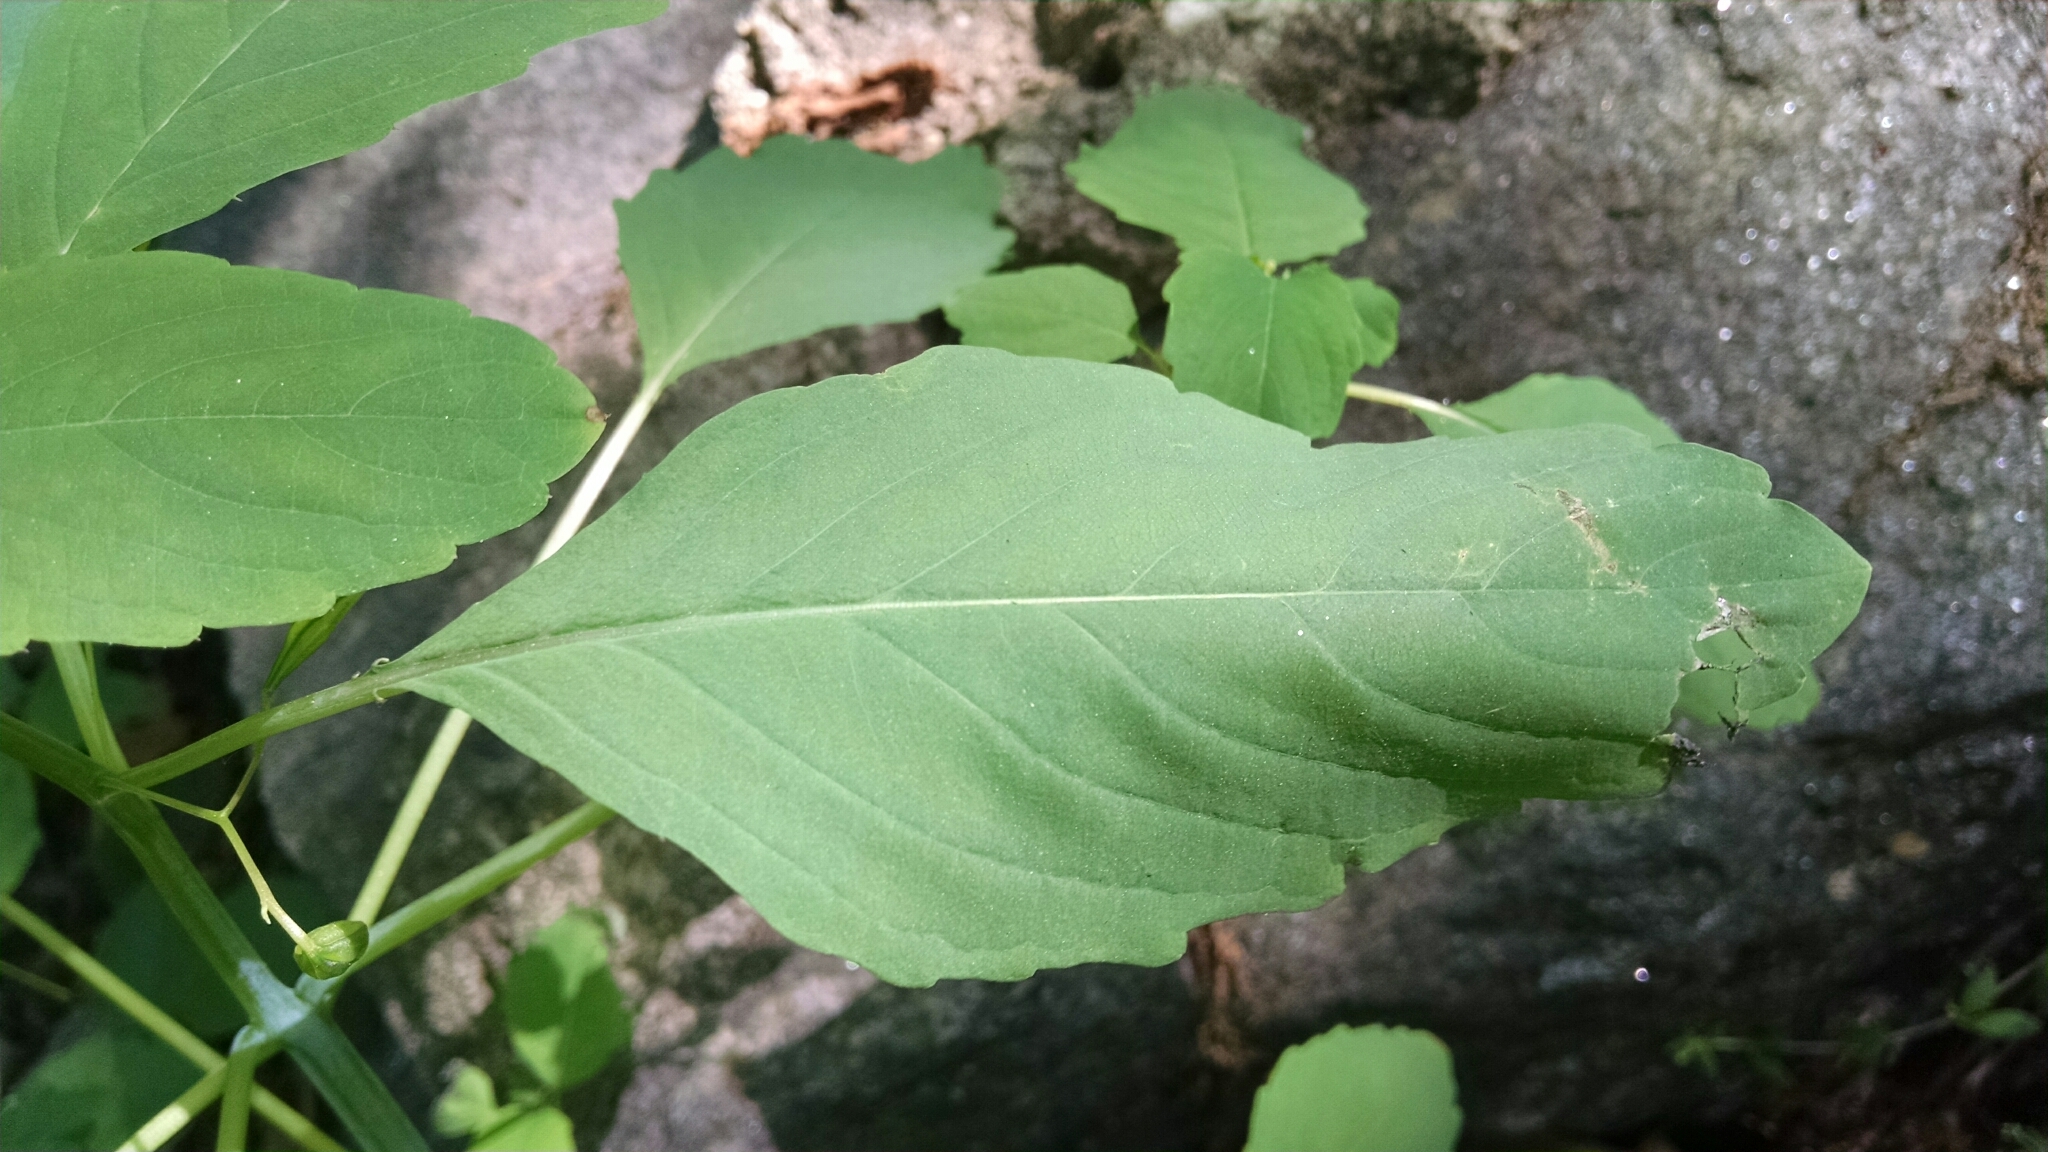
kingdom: Plantae
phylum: Tracheophyta
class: Magnoliopsida
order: Ericales
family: Balsaminaceae
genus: Impatiens
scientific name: Impatiens
